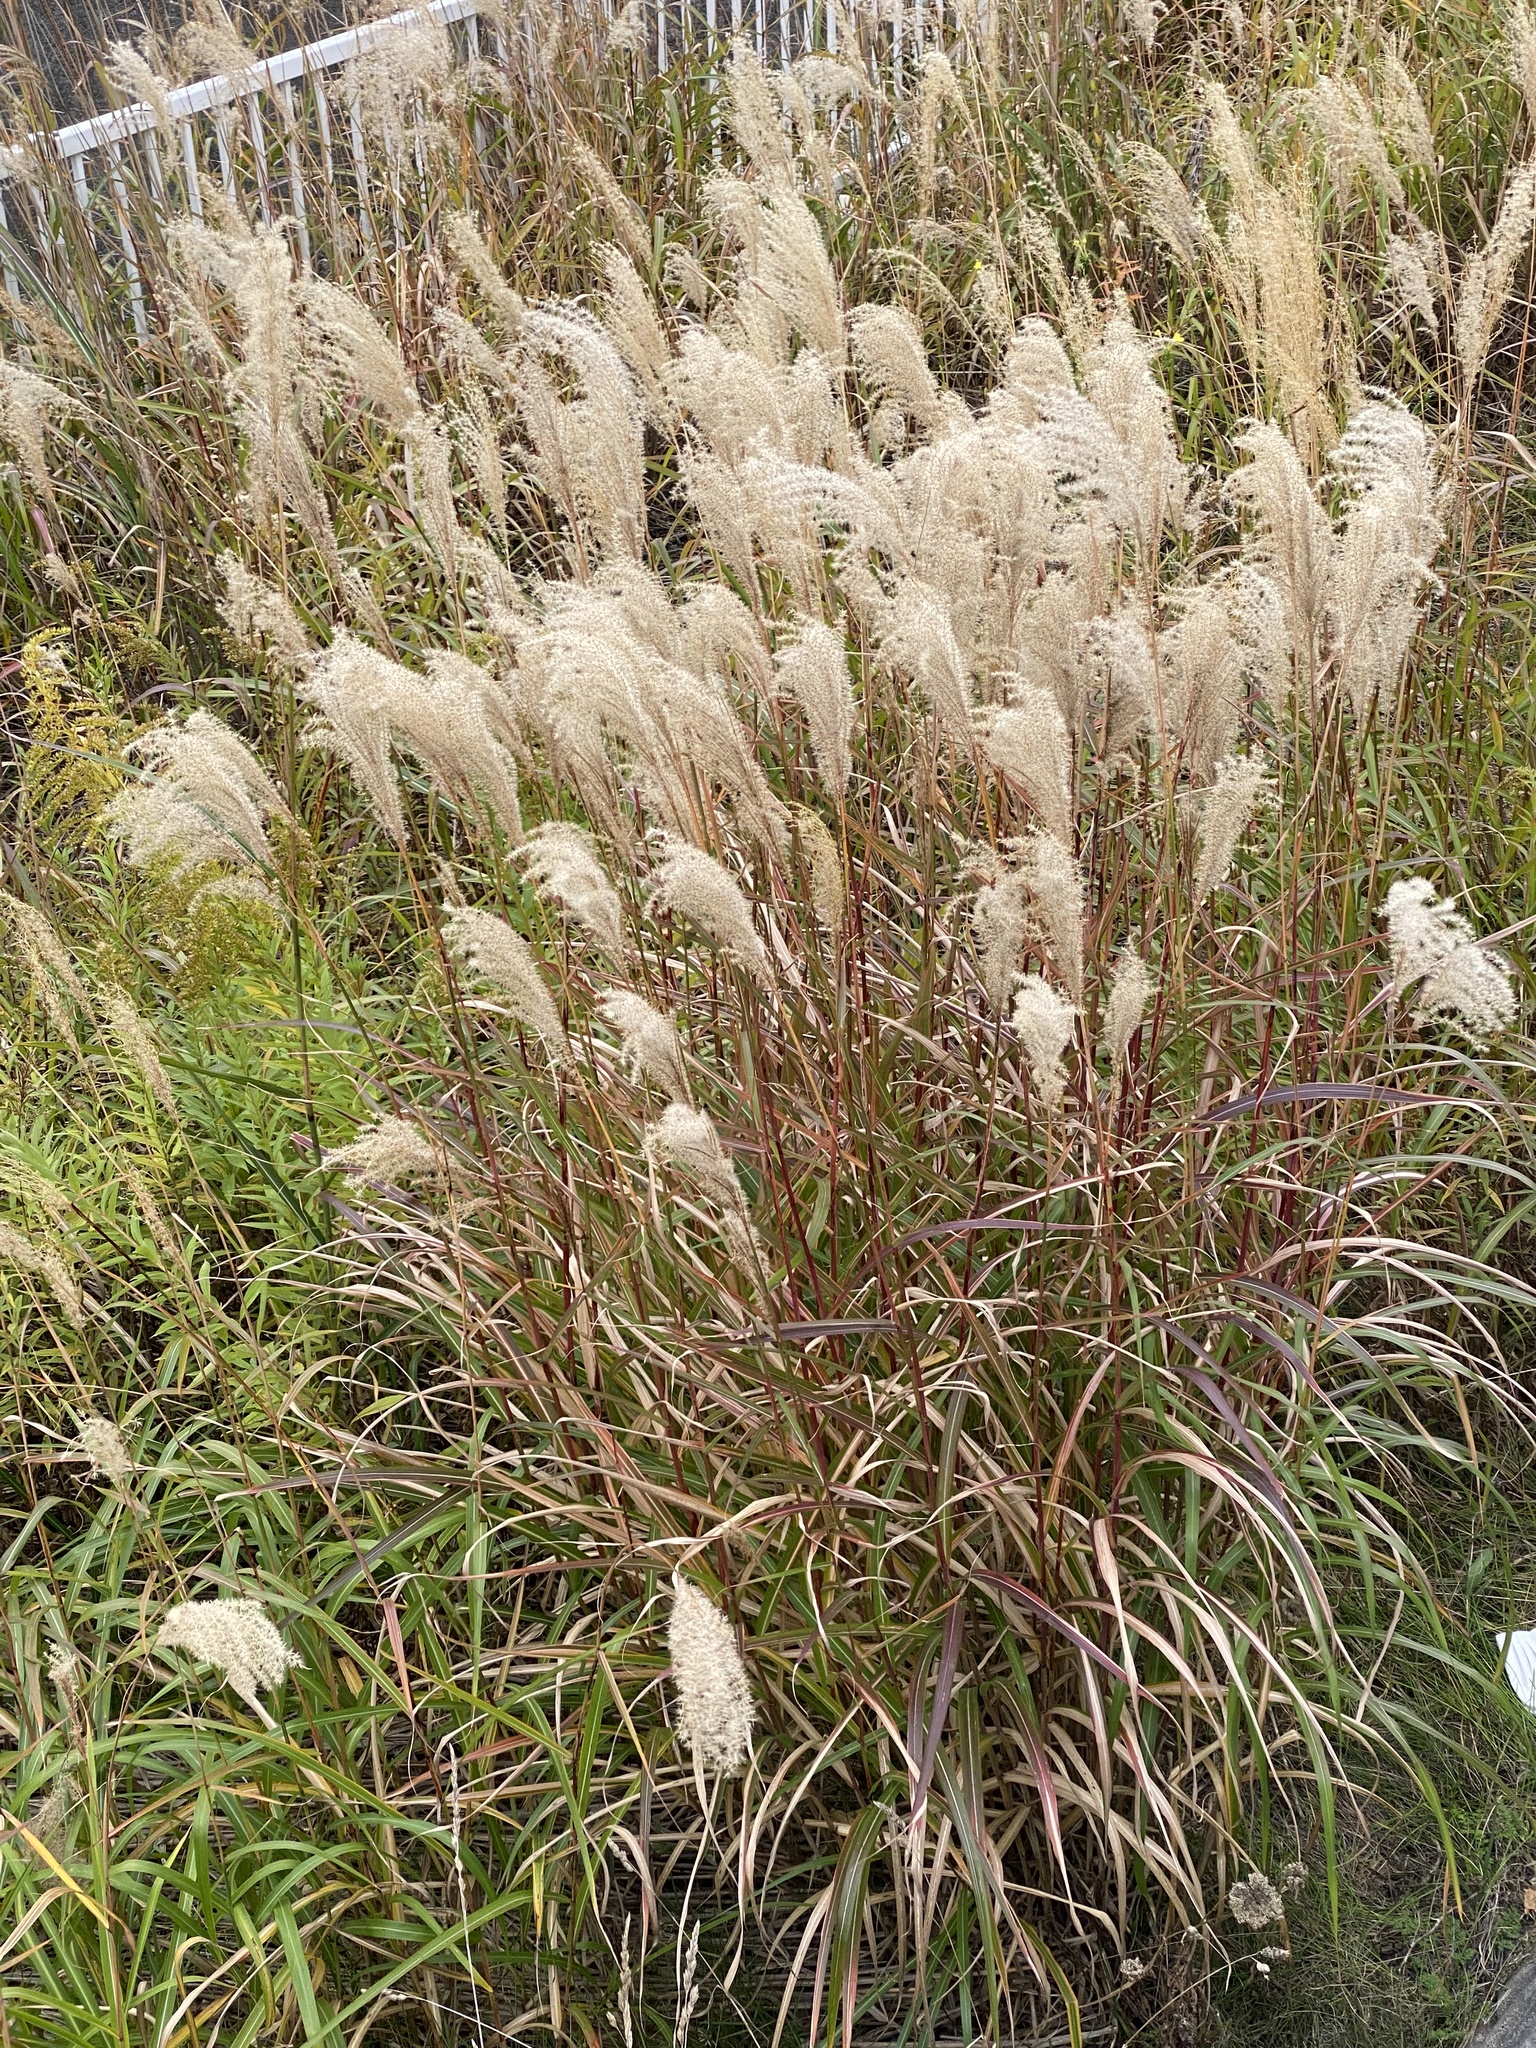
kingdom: Plantae
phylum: Tracheophyta
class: Liliopsida
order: Poales
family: Poaceae
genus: Miscanthus
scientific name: Miscanthus sinensis
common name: Chinese silvergrass
